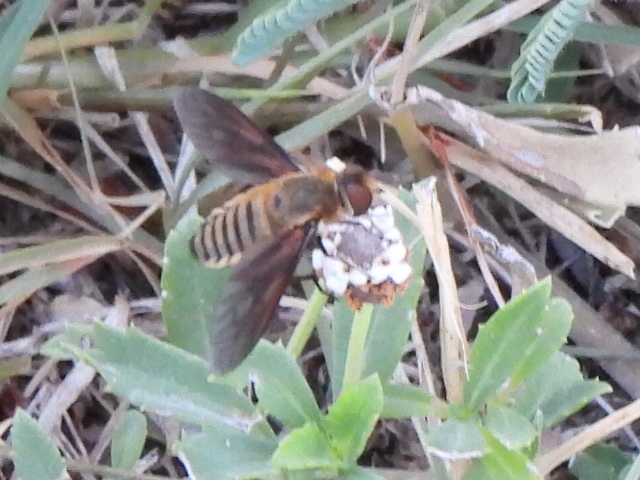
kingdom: Animalia
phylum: Arthropoda
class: Insecta
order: Diptera
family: Bombyliidae
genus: Poecilanthrax
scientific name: Poecilanthrax lucifer
